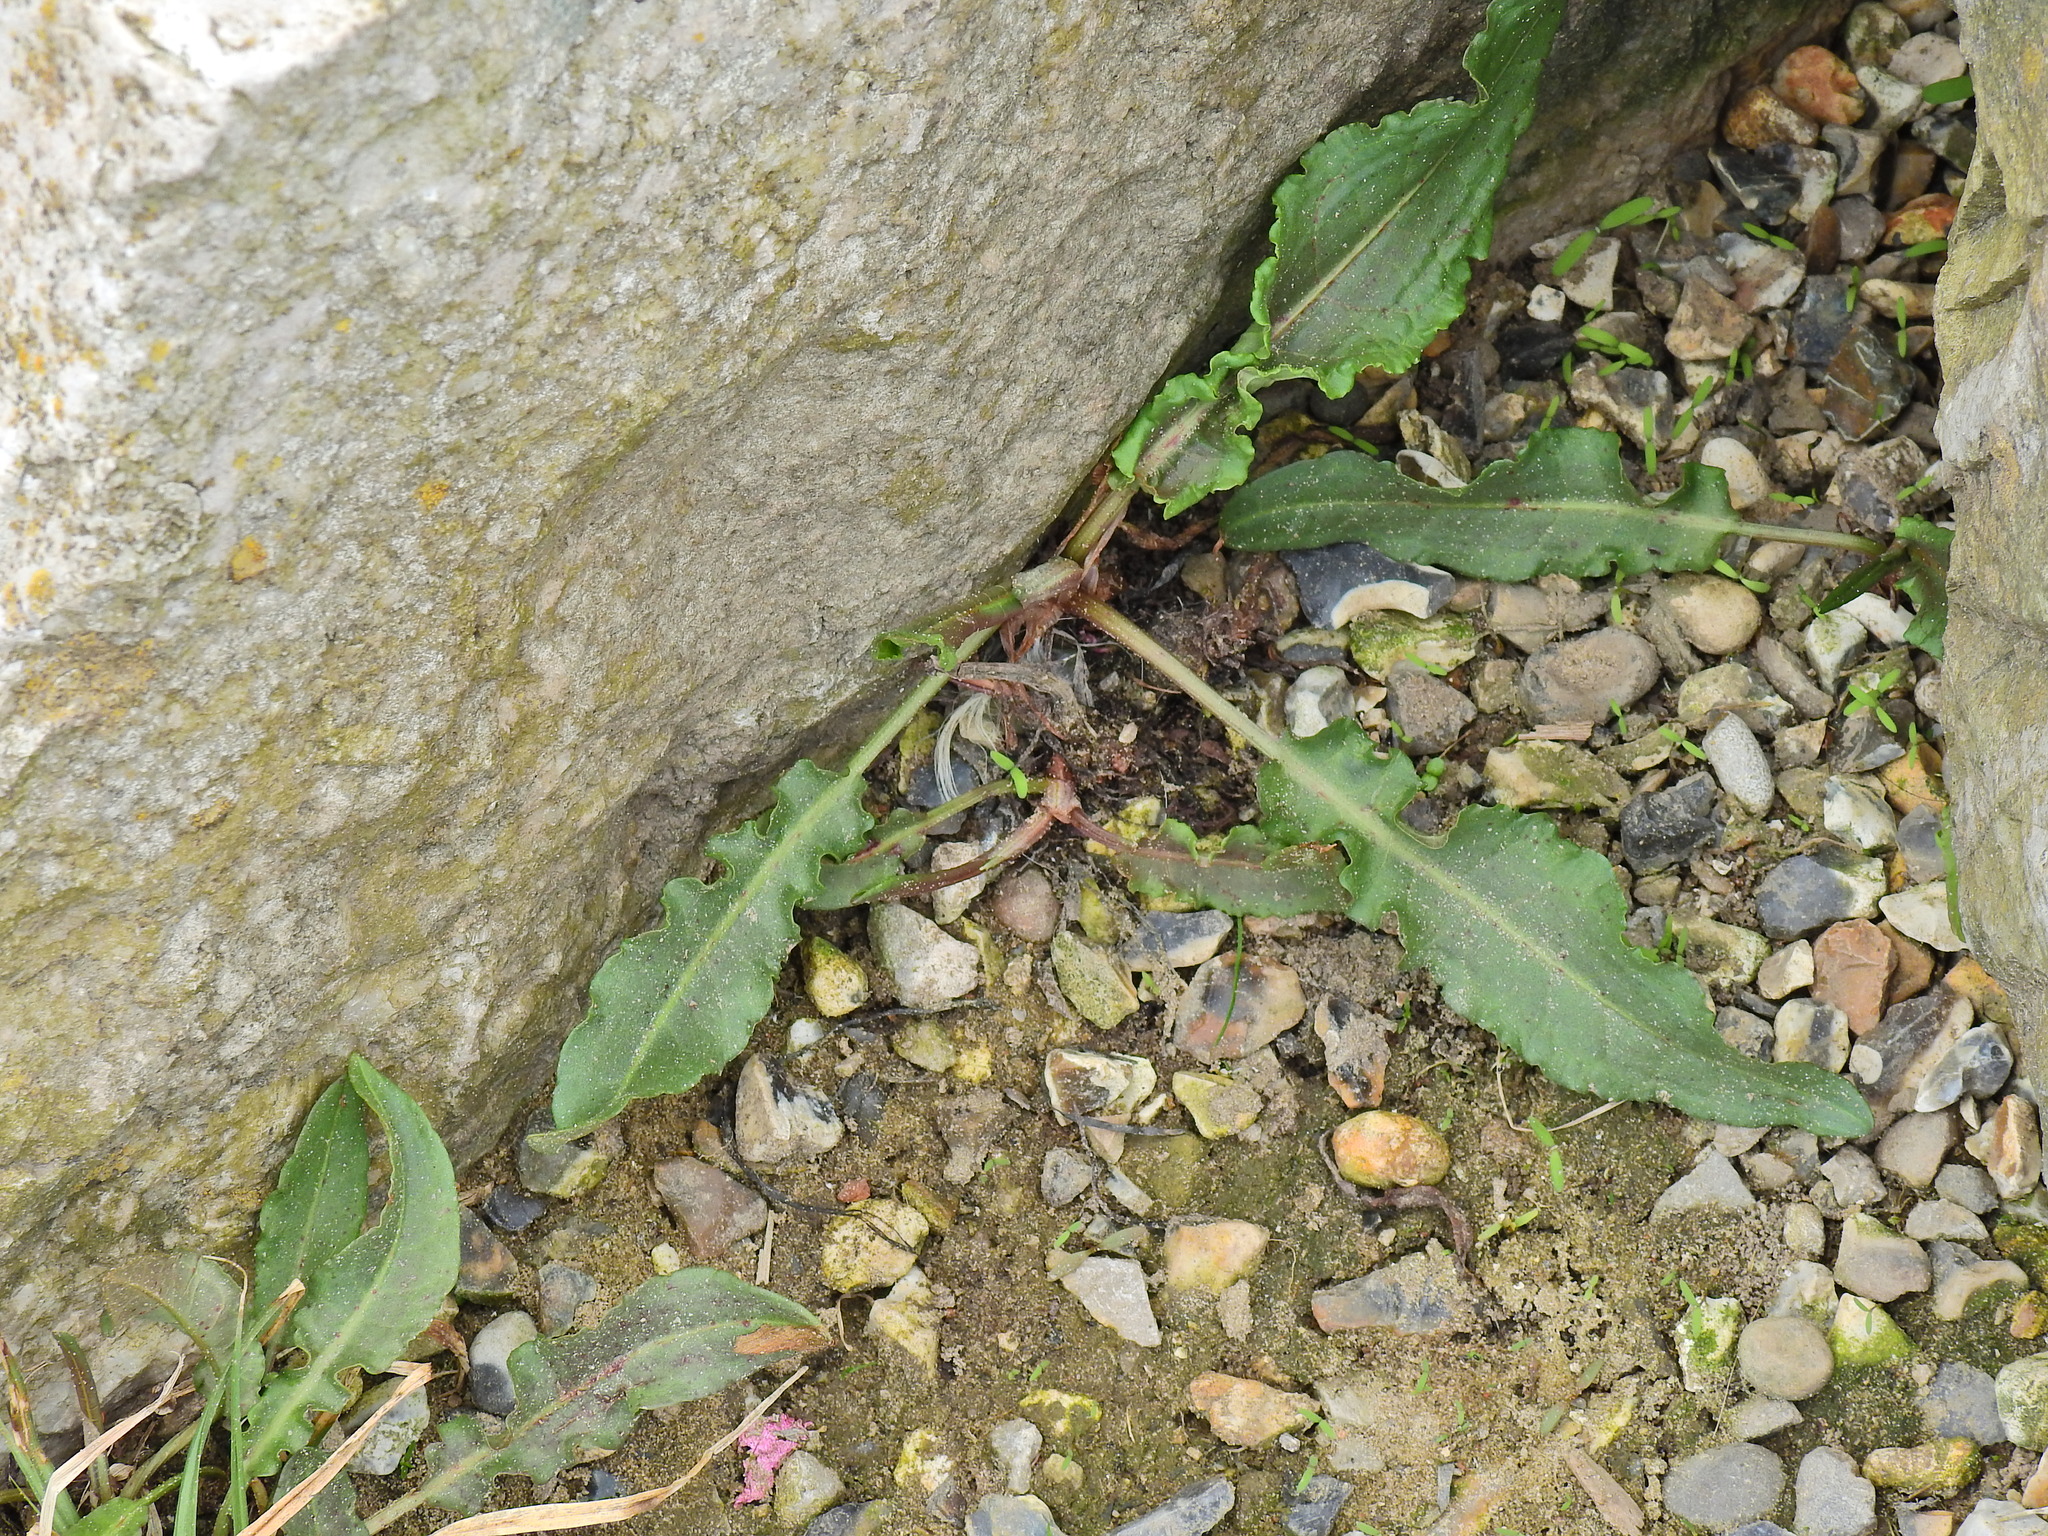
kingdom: Plantae
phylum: Tracheophyta
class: Magnoliopsida
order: Caryophyllales
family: Polygonaceae
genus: Rumex
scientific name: Rumex crispus
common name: Curled dock
